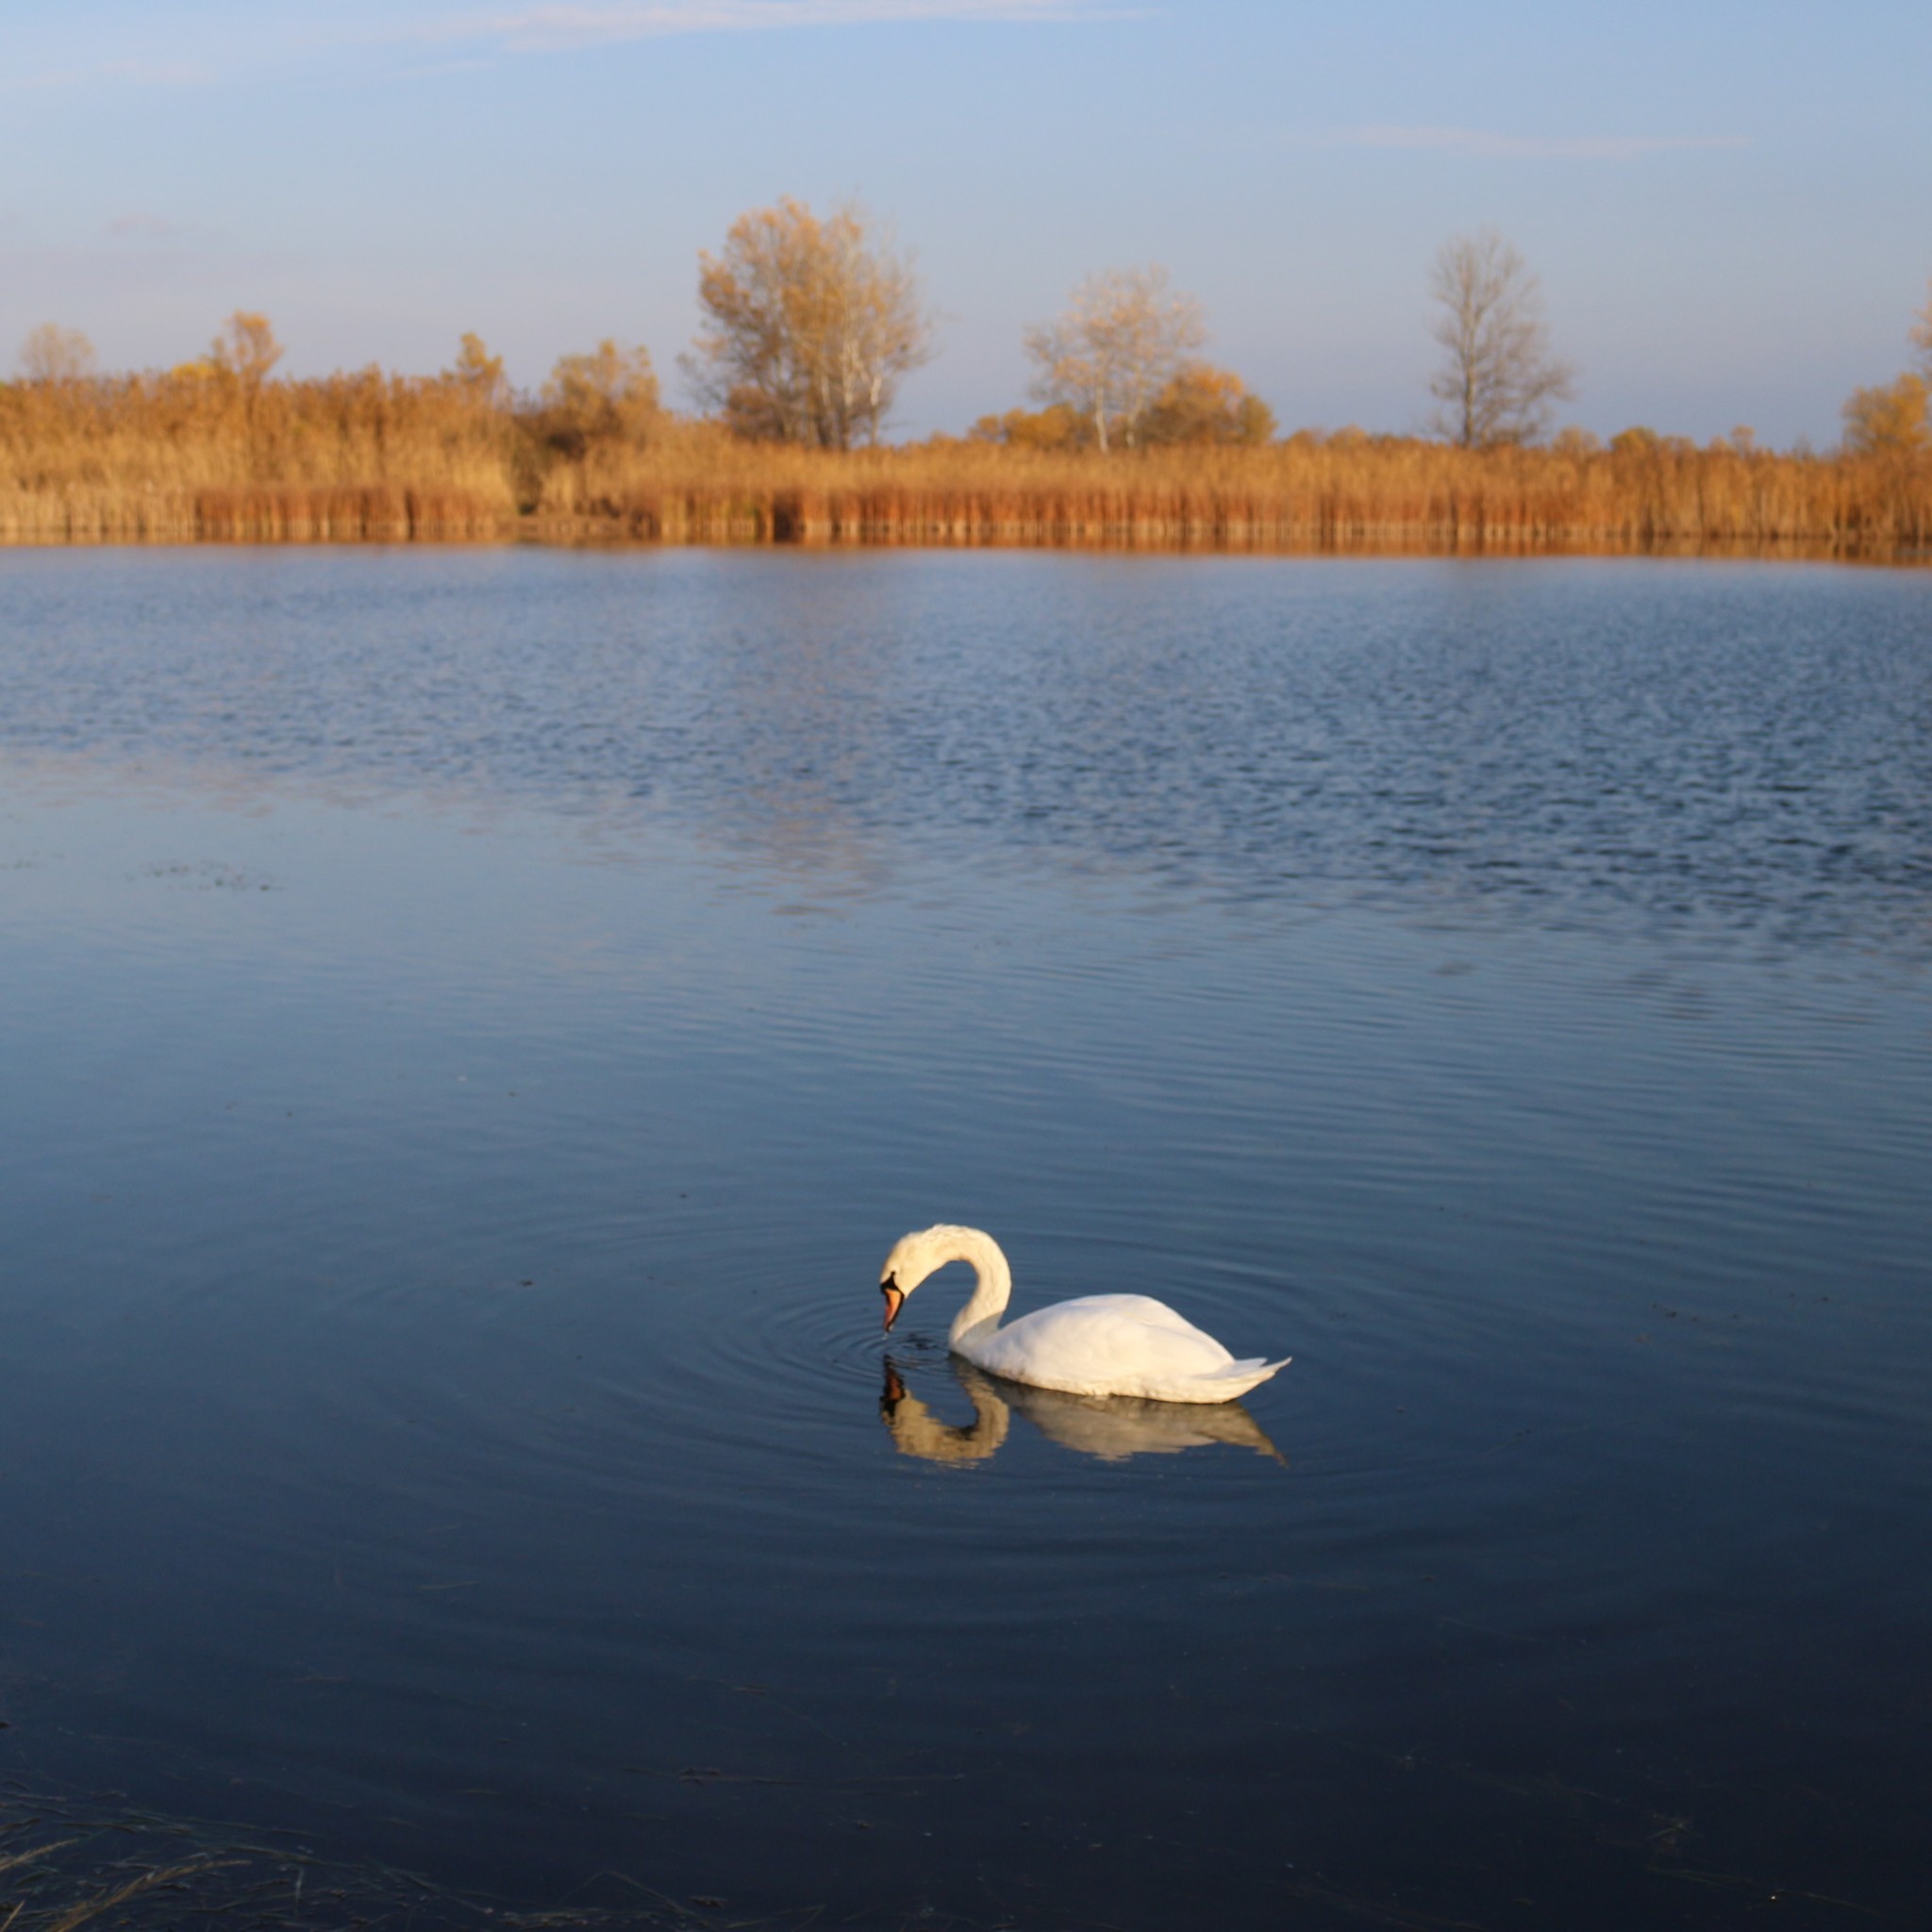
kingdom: Animalia
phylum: Chordata
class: Aves
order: Anseriformes
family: Anatidae
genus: Cygnus
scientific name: Cygnus olor
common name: Mute swan
